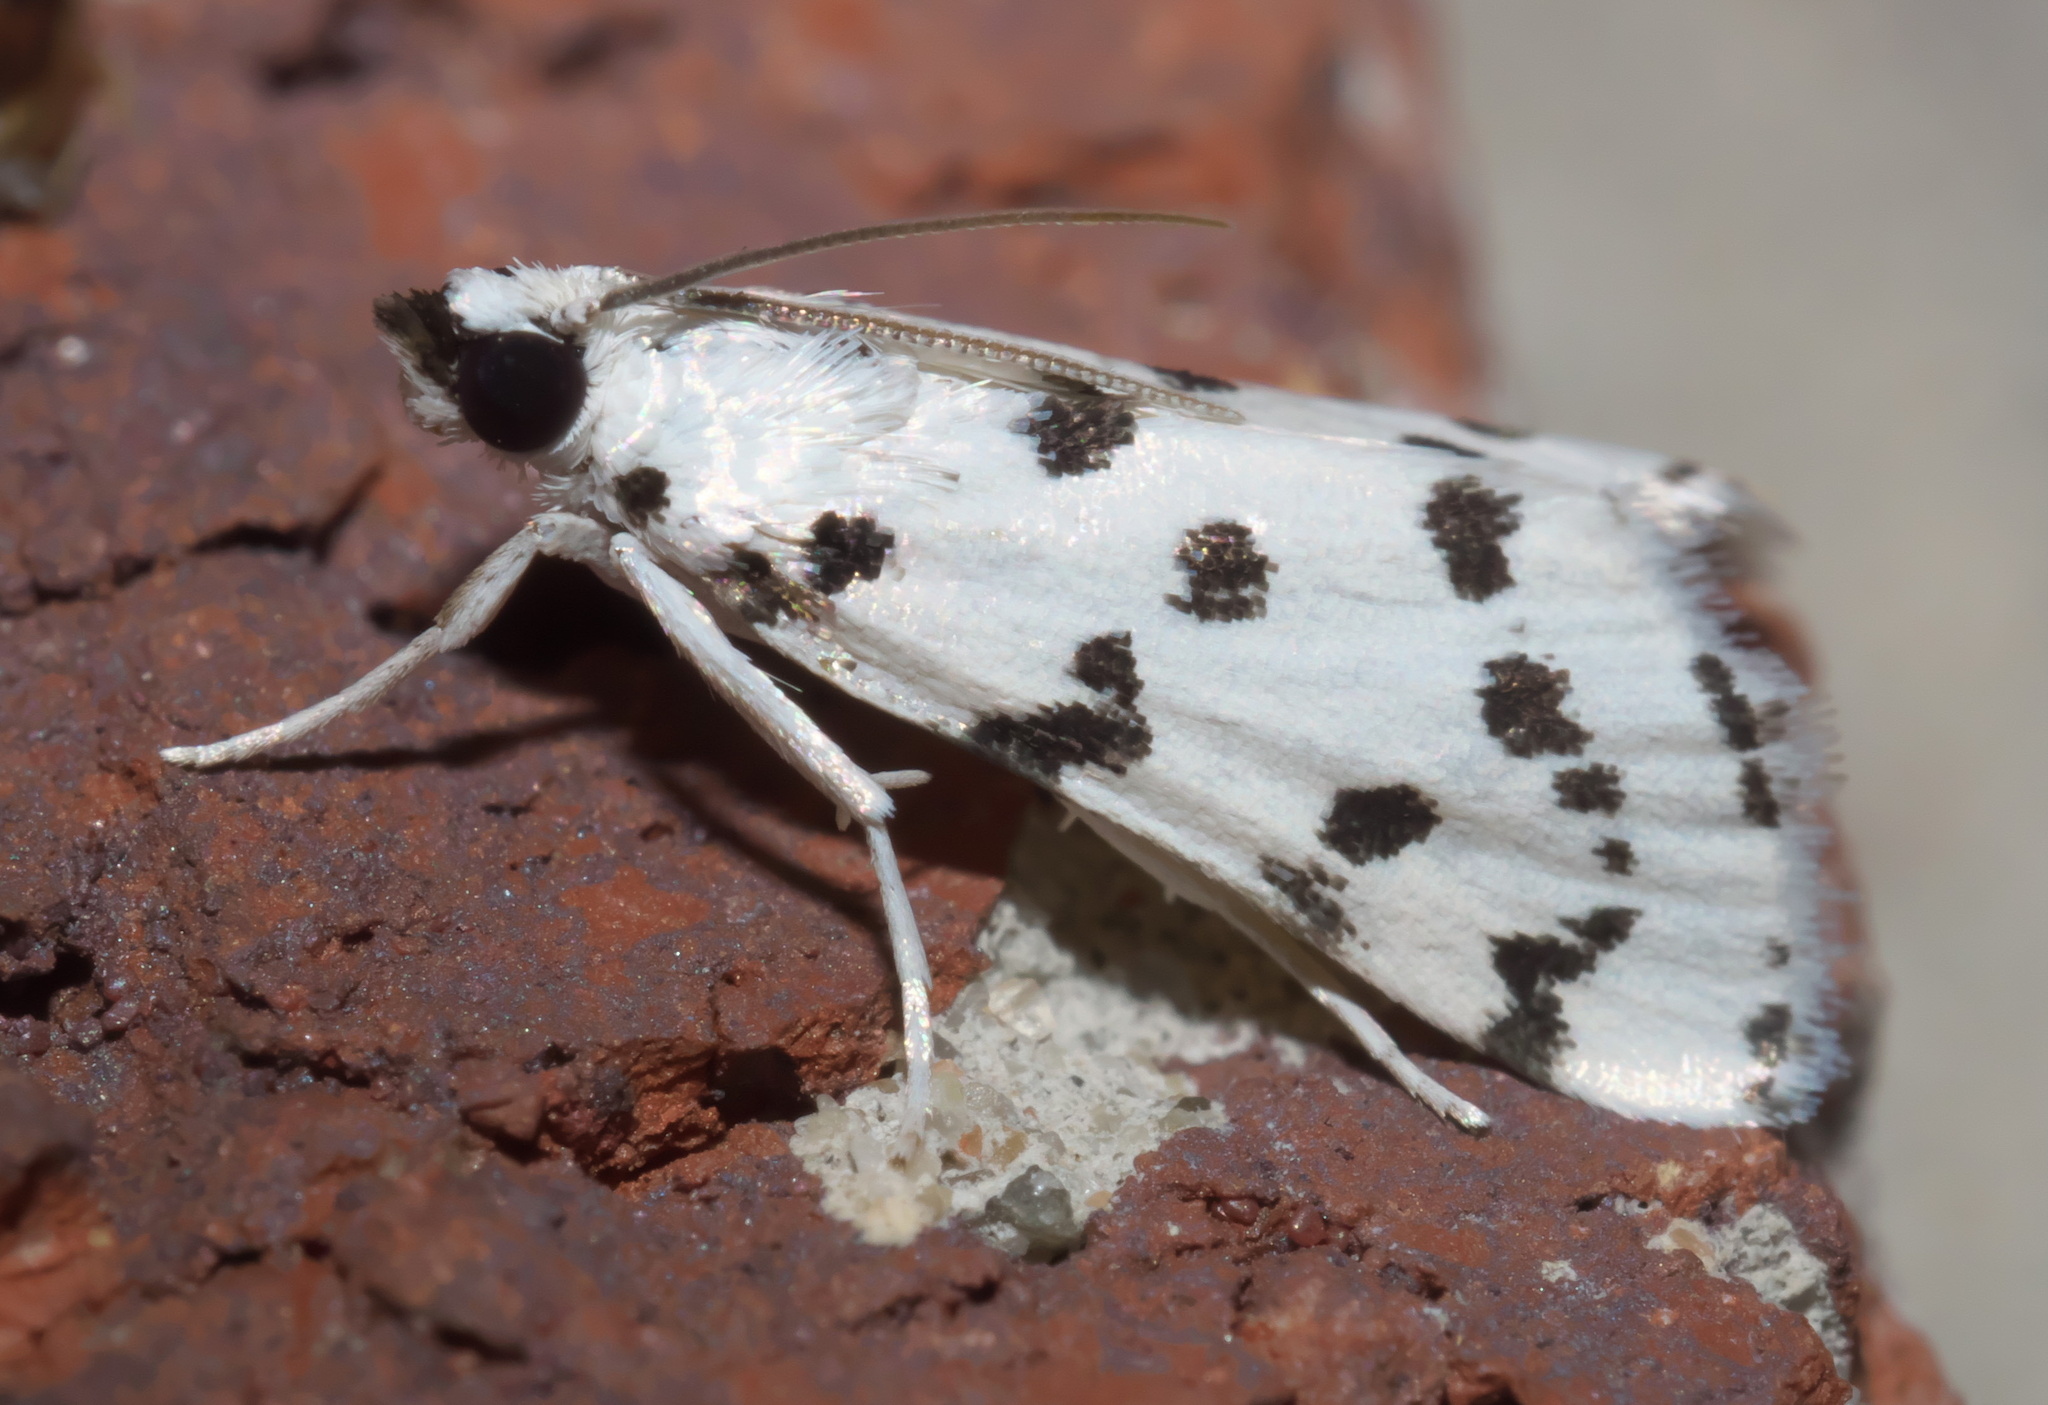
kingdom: Animalia
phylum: Arthropoda
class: Insecta
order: Lepidoptera
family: Crambidae
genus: Eustixia
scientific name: Eustixia pupula
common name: American cabbage pearl
